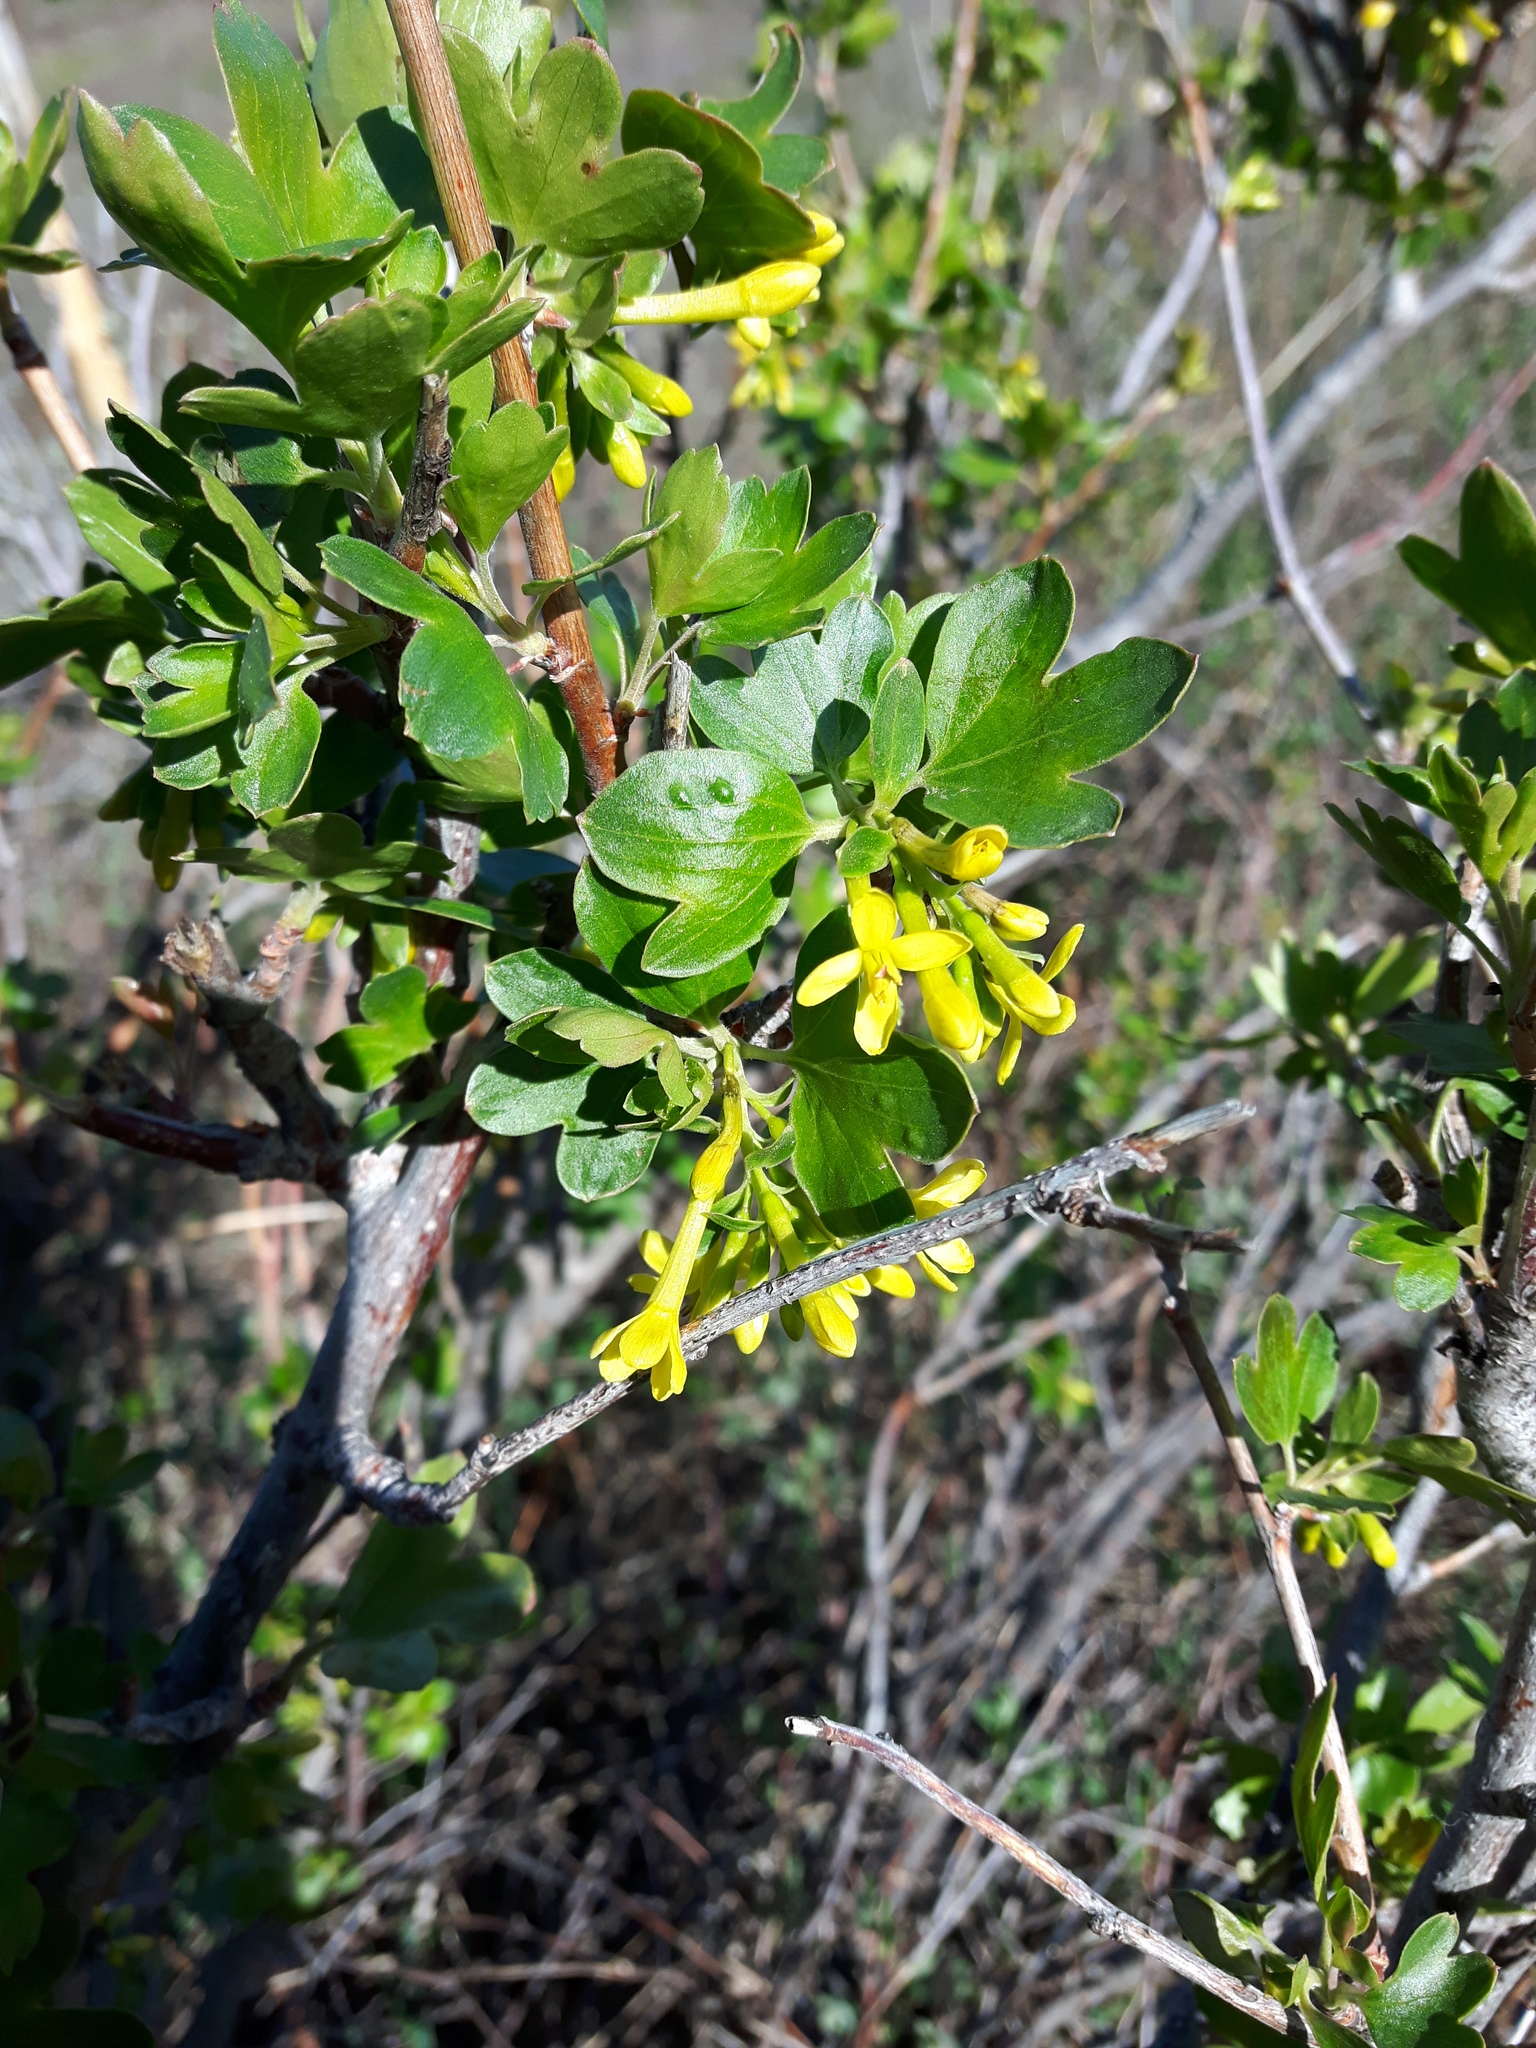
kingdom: Plantae
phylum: Tracheophyta
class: Magnoliopsida
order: Saxifragales
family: Grossulariaceae
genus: Ribes
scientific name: Ribes aureum
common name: Golden currant
